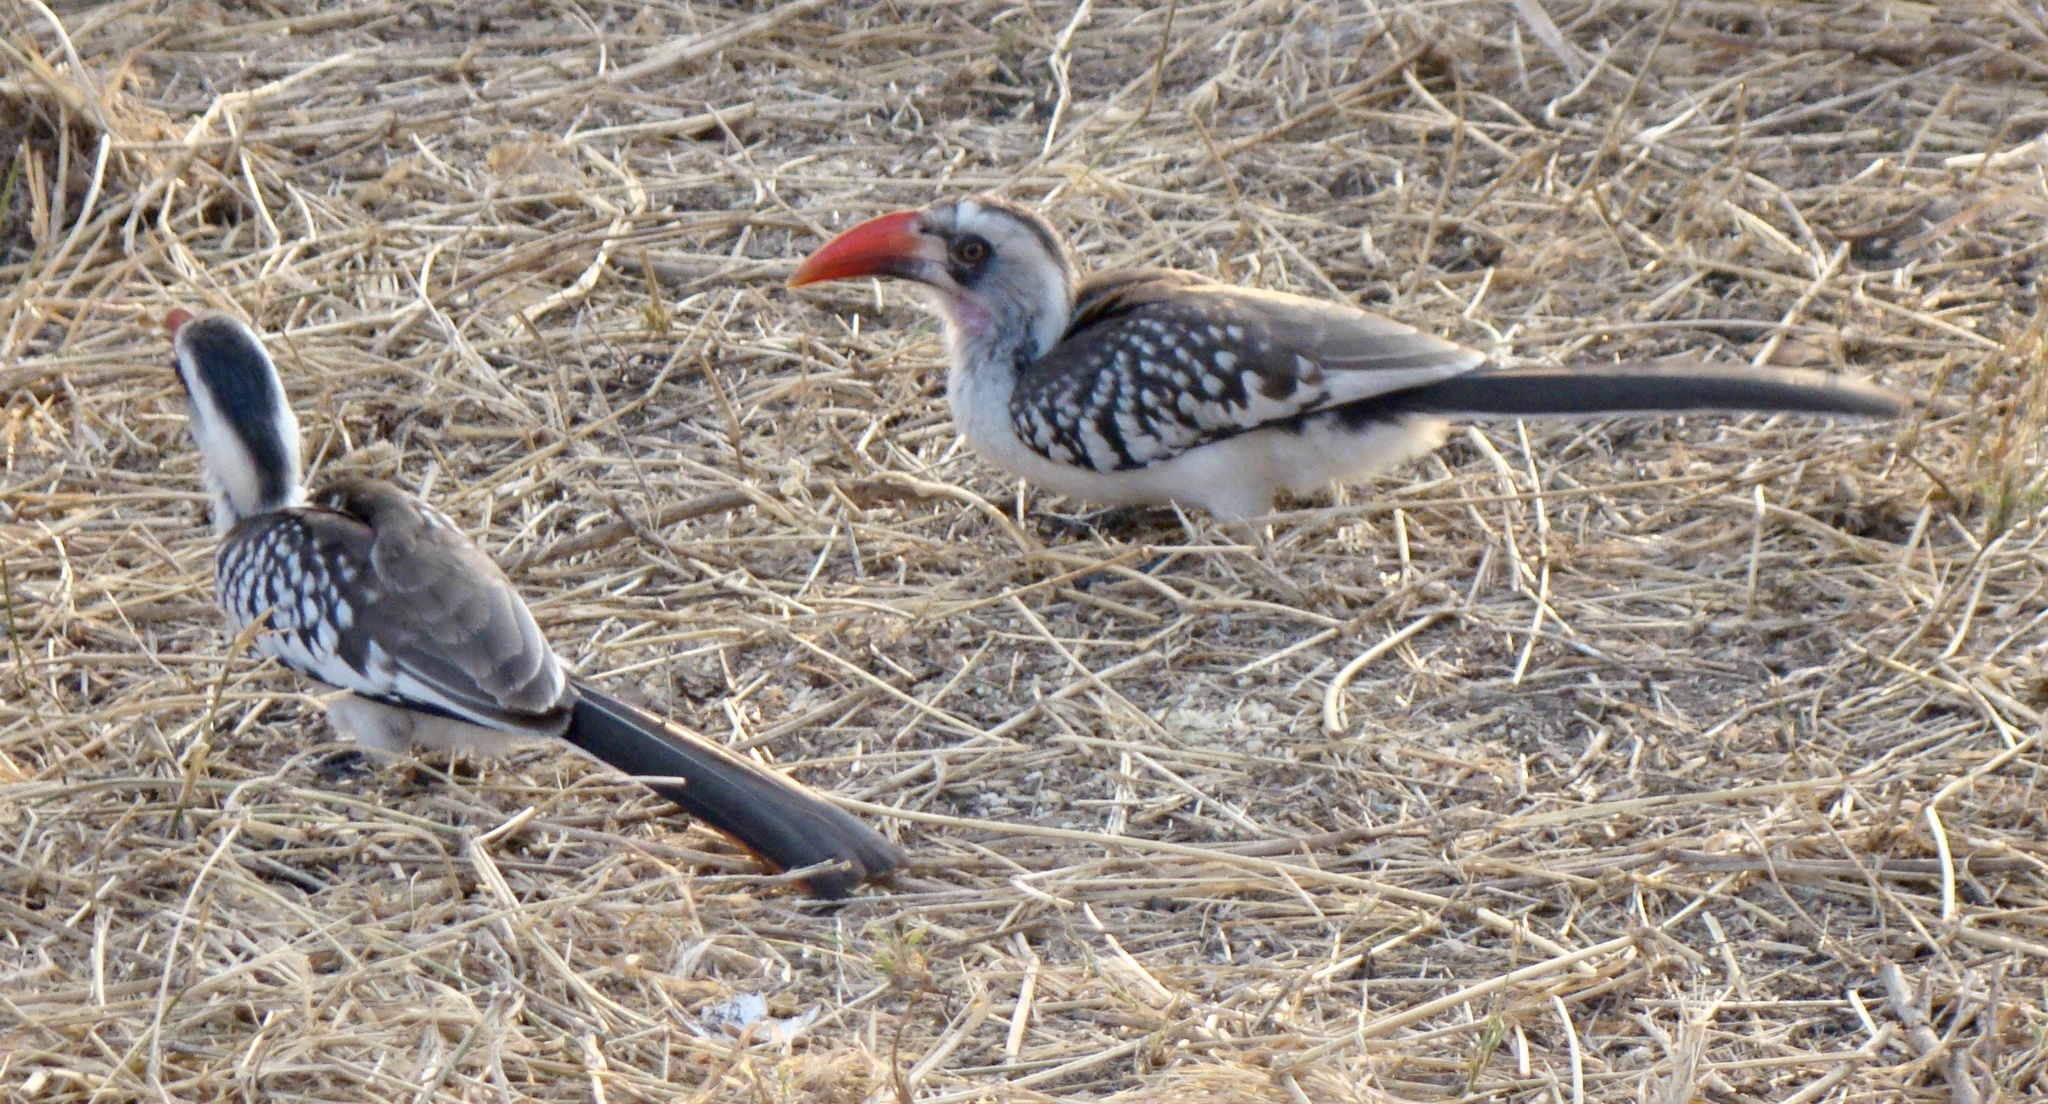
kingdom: Animalia
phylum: Chordata
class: Aves
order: Bucerotiformes
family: Bucerotidae
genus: Tockus
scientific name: Tockus ruahae
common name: Tanzanian red-billed hornbill
